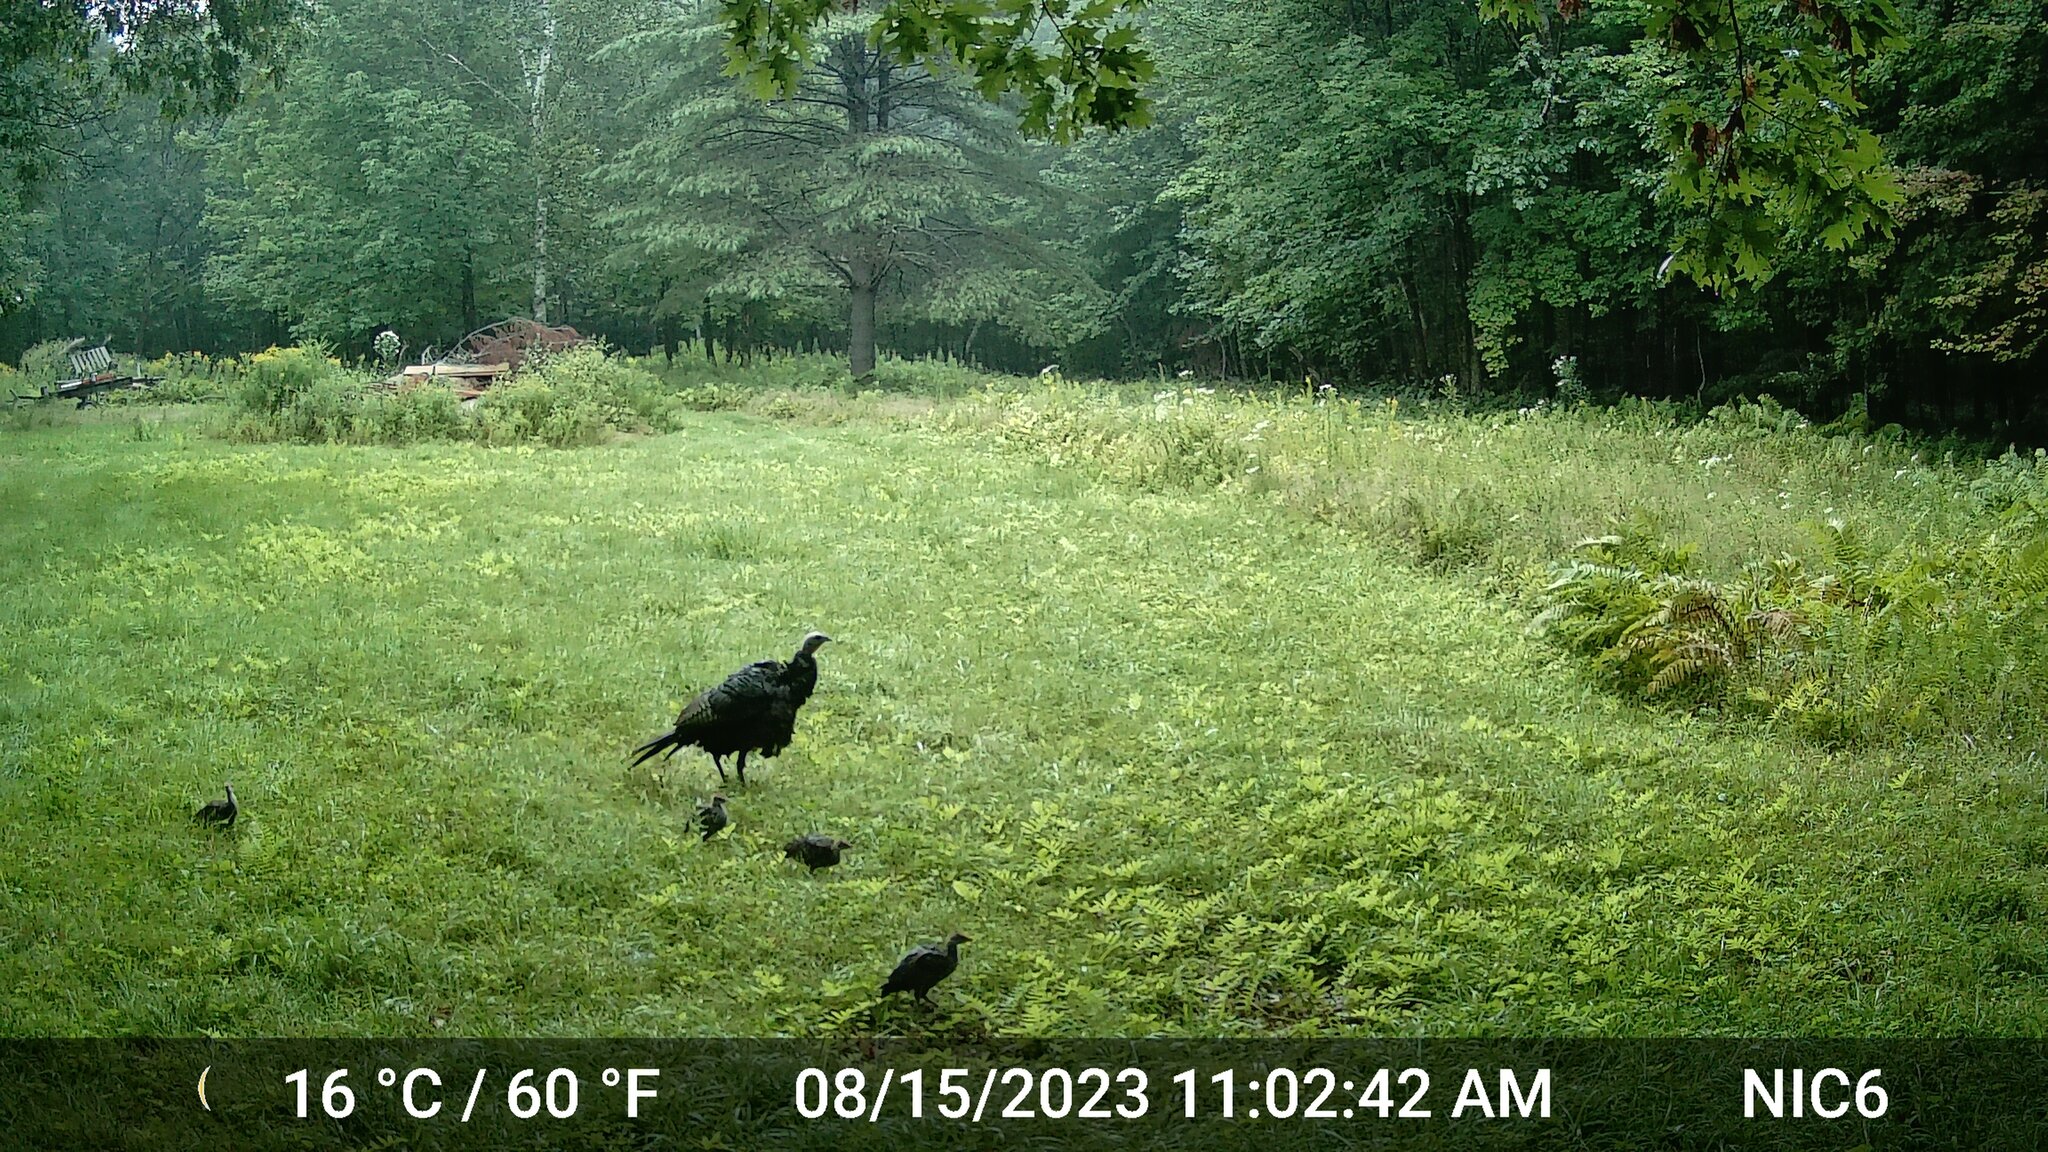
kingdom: Animalia
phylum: Chordata
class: Aves
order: Galliformes
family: Phasianidae
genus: Meleagris
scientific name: Meleagris gallopavo
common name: Wild turkey
